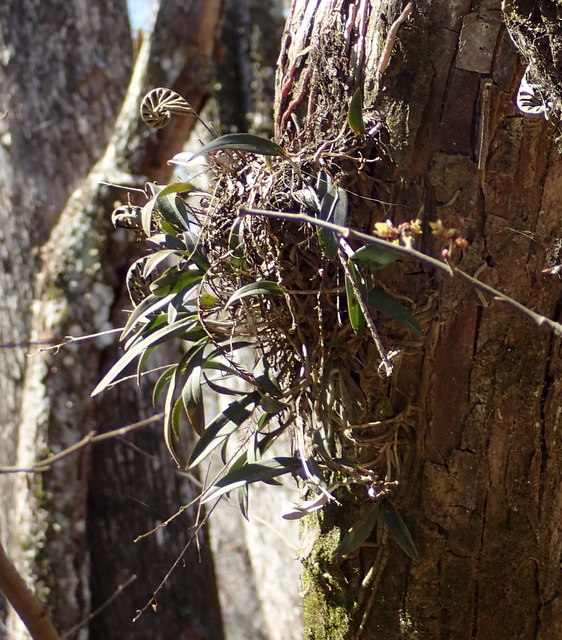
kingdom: Plantae
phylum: Tracheophyta
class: Liliopsida
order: Asparagales
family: Orchidaceae
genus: Epidendrum
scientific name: Epidendrum conopseum
